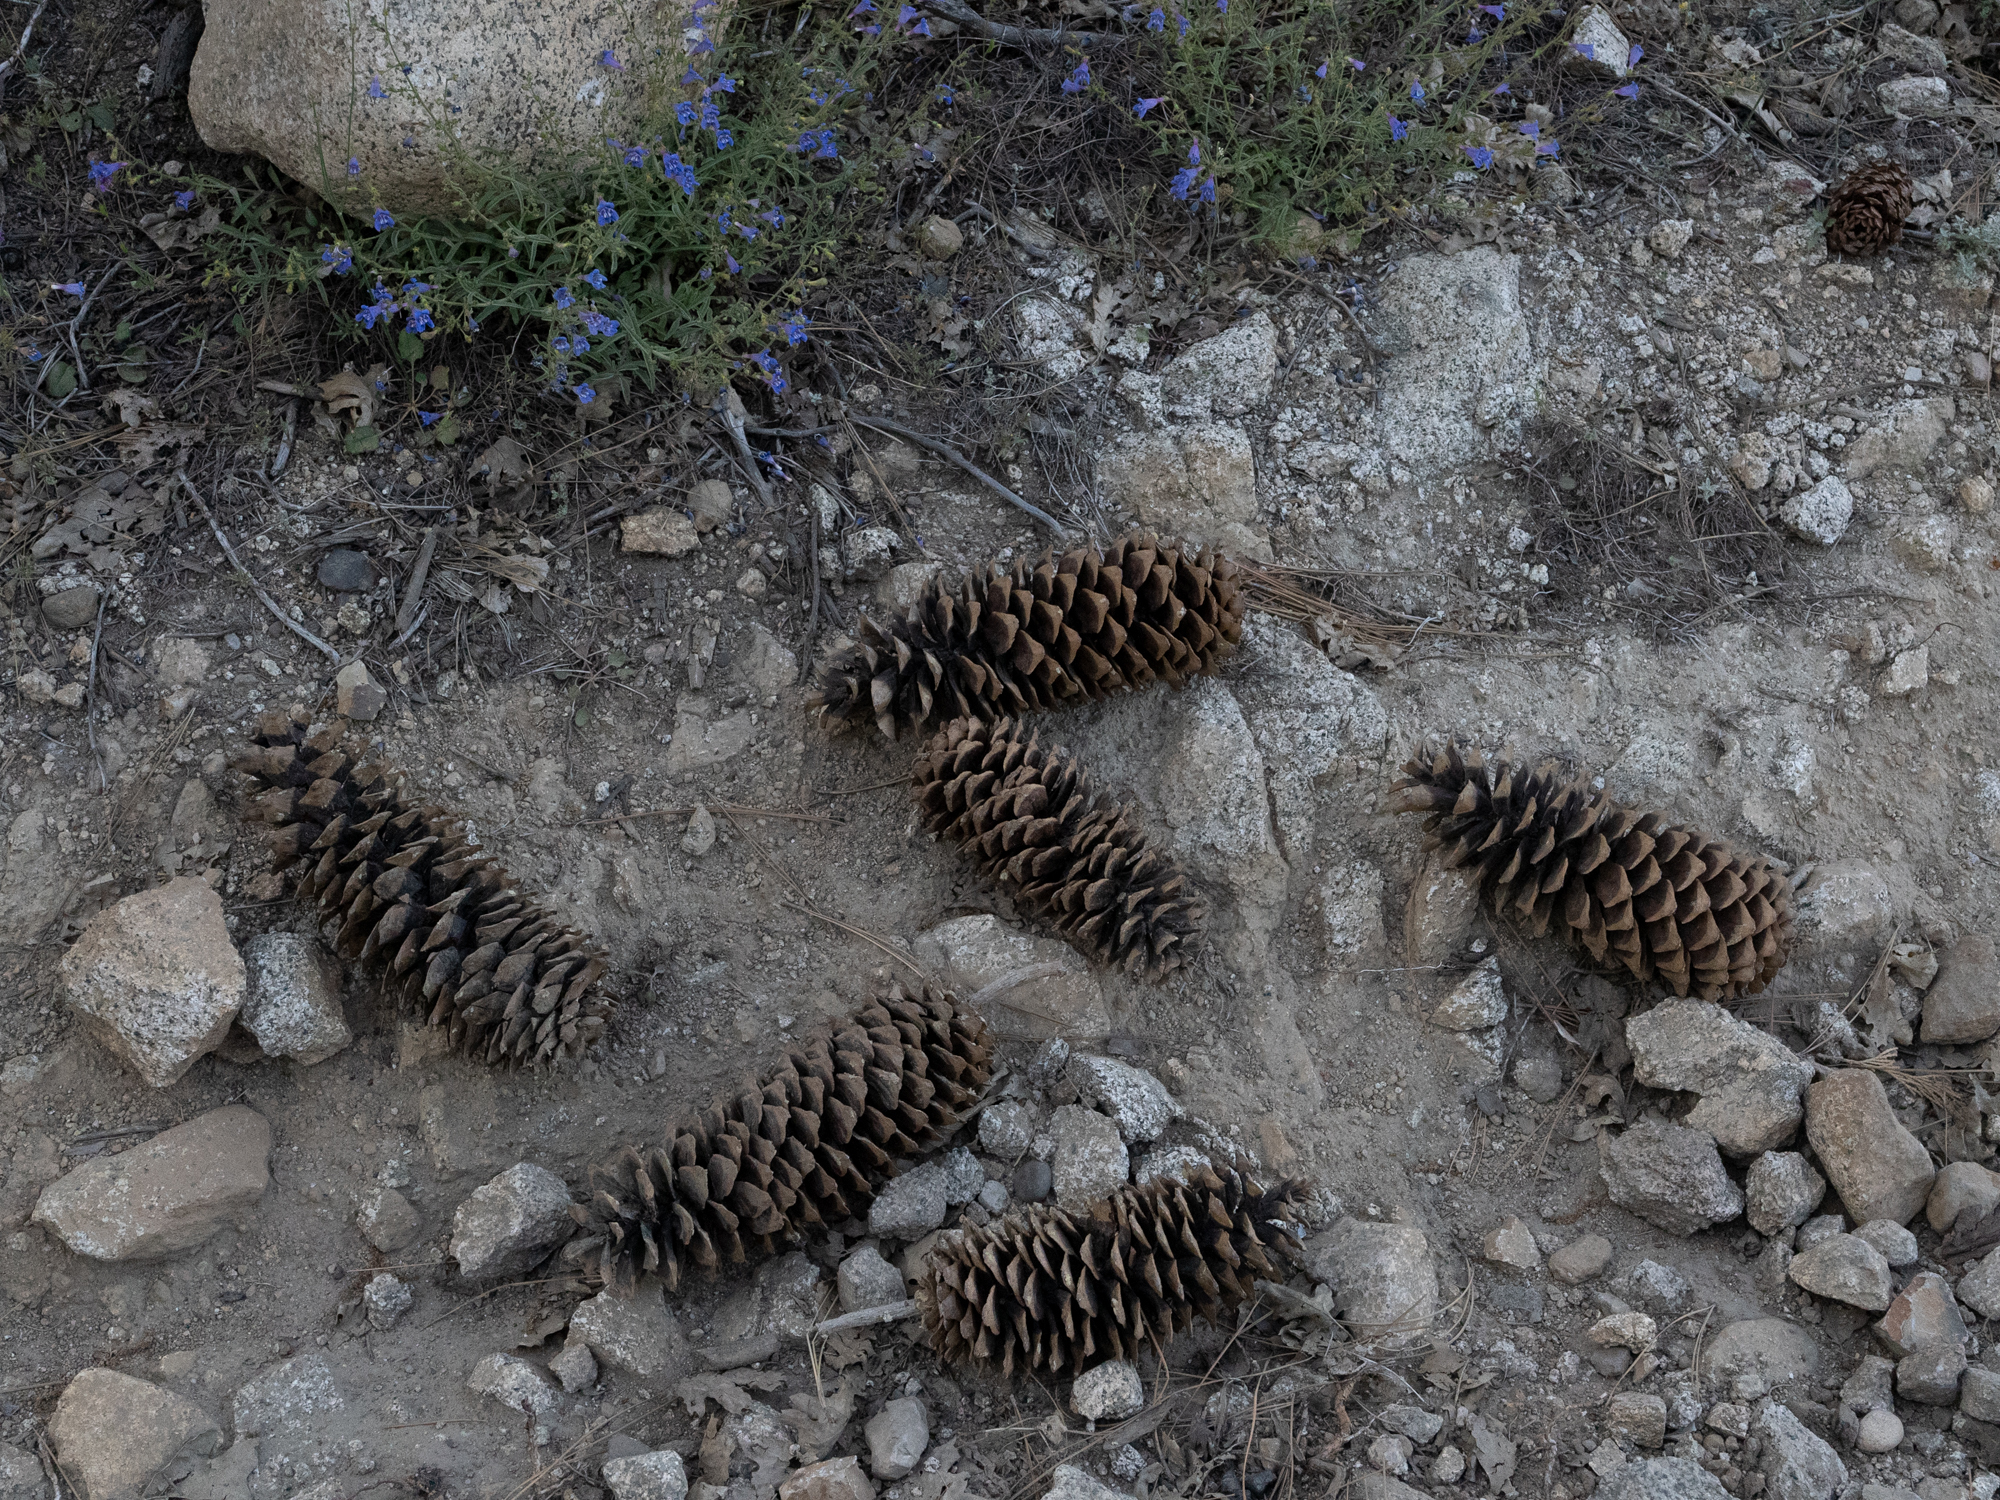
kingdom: Plantae
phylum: Tracheophyta
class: Pinopsida
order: Pinales
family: Pinaceae
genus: Pinus
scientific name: Pinus lambertiana
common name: Sugar pine
